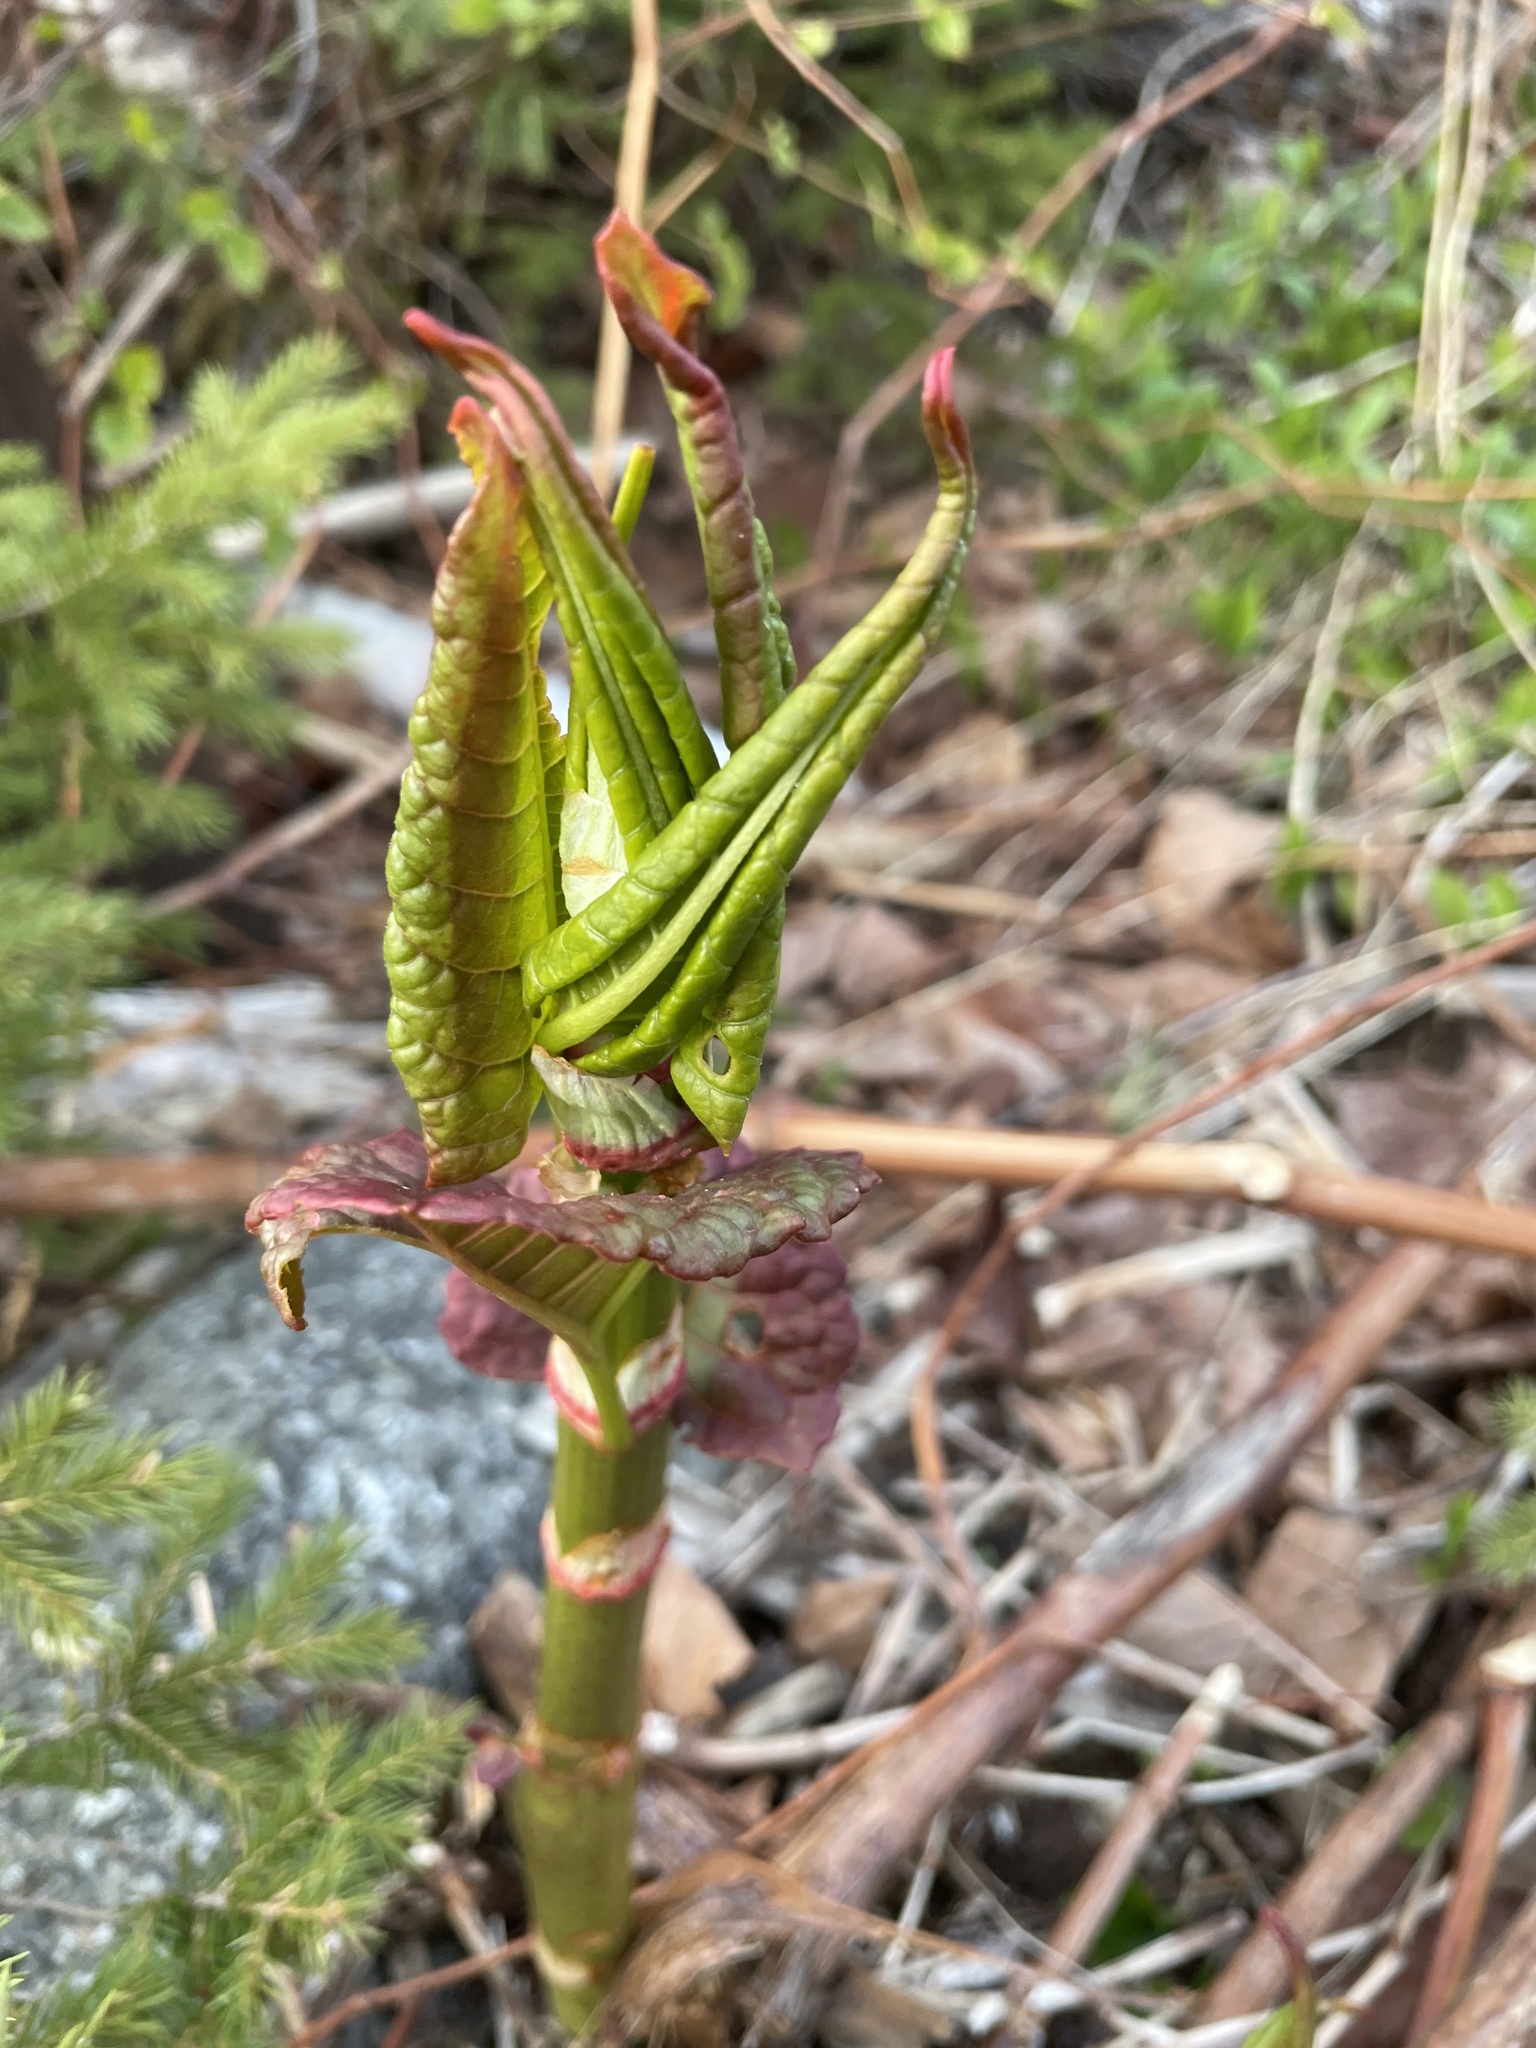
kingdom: Plantae
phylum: Tracheophyta
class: Magnoliopsida
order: Caryophyllales
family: Polygonaceae
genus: Reynoutria
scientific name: Reynoutria japonica
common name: Japanese knotweed
